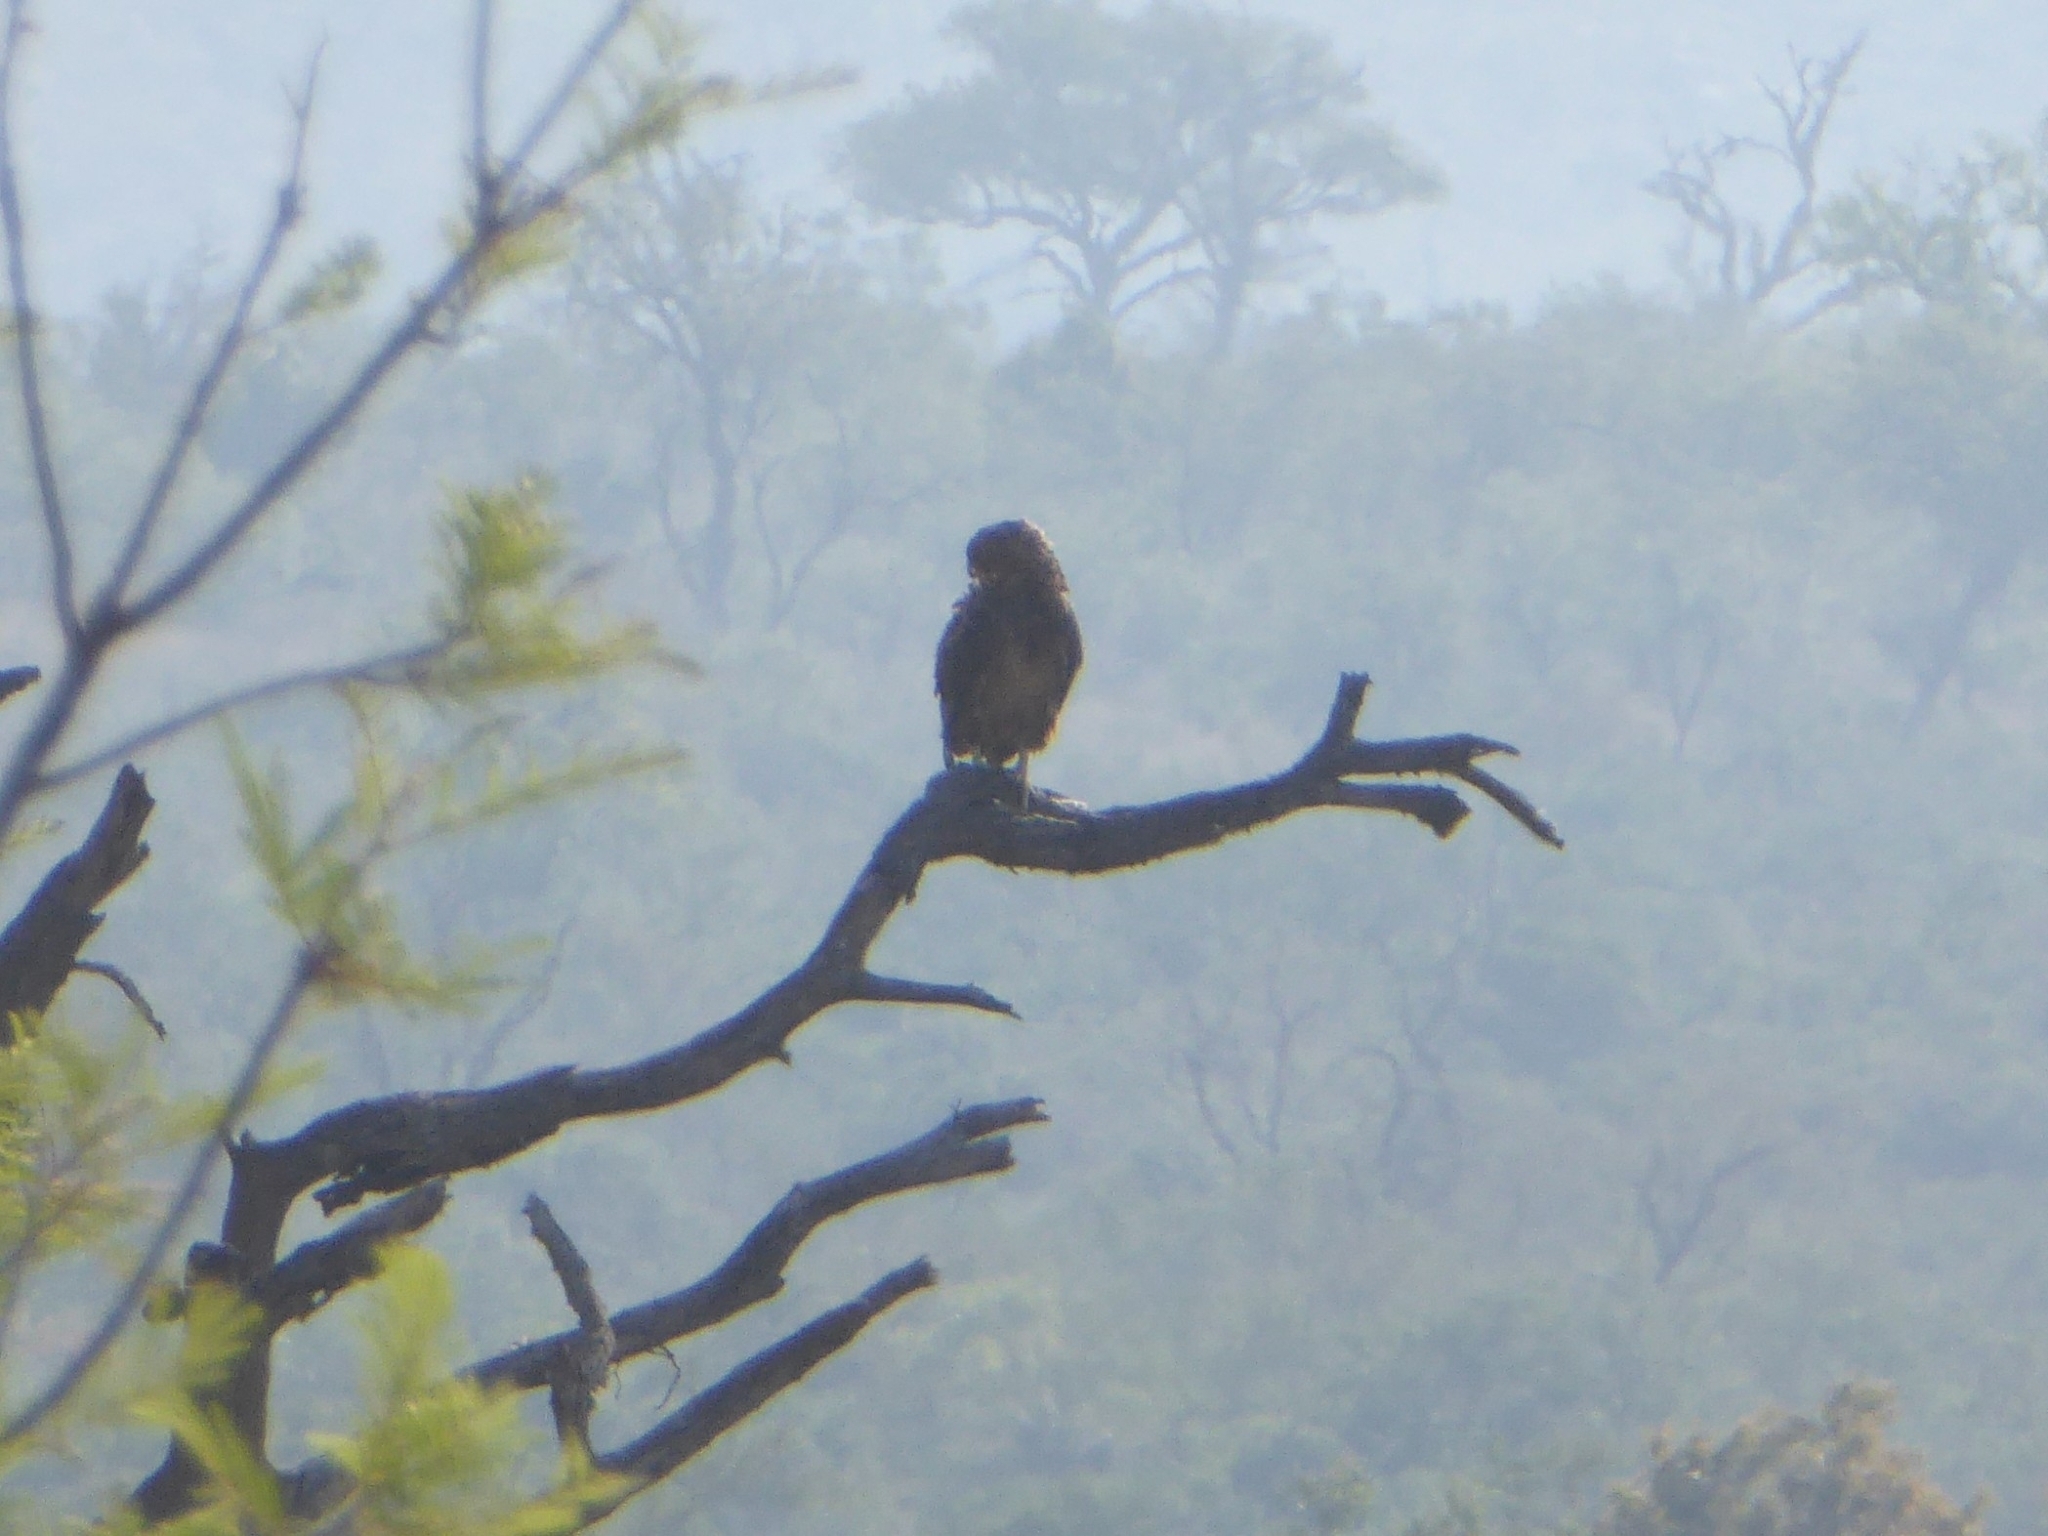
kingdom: Animalia
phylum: Chordata
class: Aves
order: Accipitriformes
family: Accipitridae
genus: Terathopius
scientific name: Terathopius ecaudatus
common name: Bateleur
